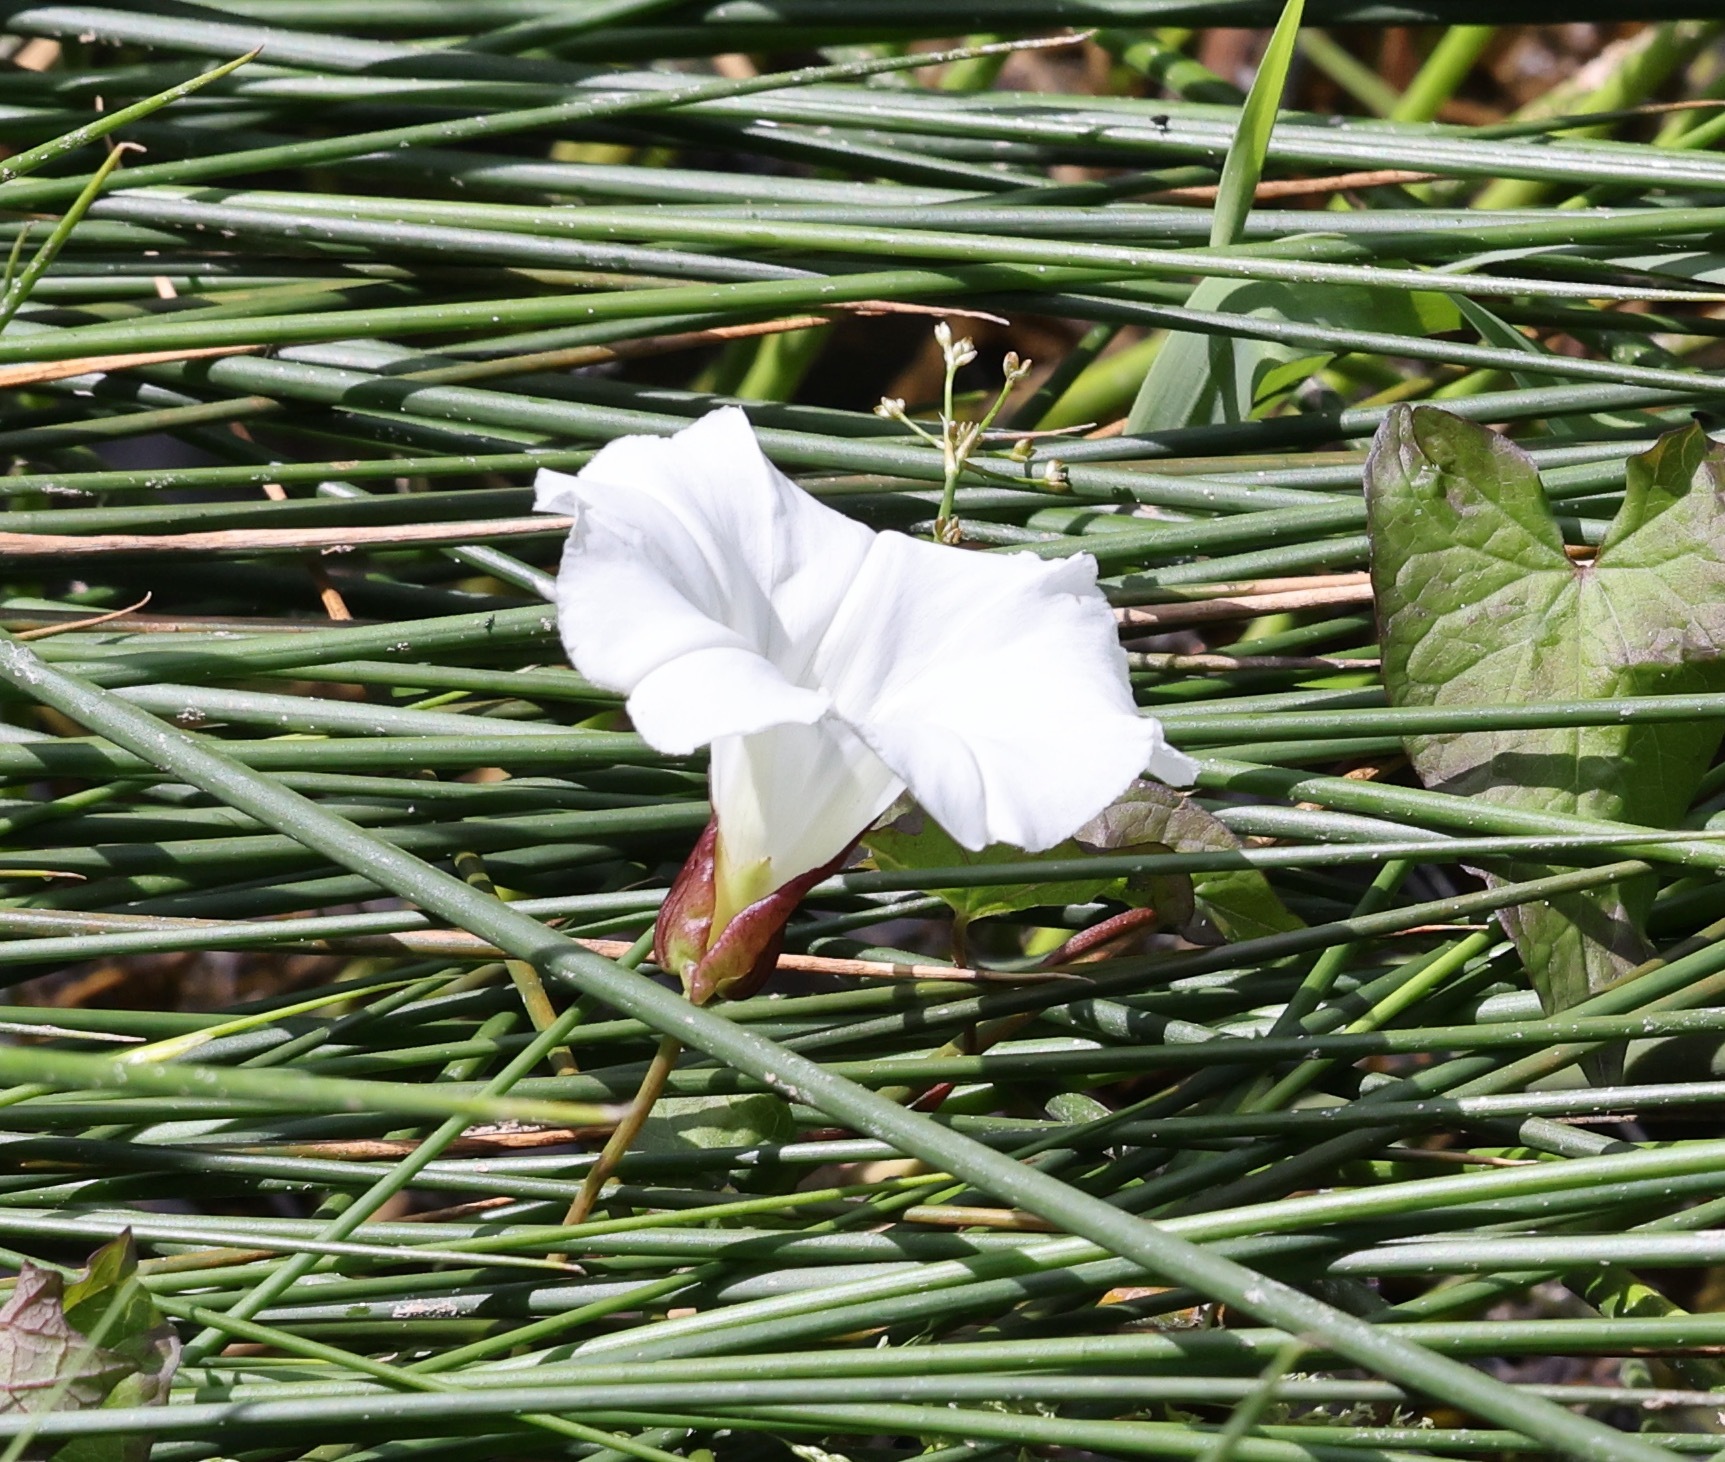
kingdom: Plantae
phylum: Tracheophyta
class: Magnoliopsida
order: Solanales
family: Convolvulaceae
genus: Calystegia
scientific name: Calystegia sepium
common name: Hedge bindweed
